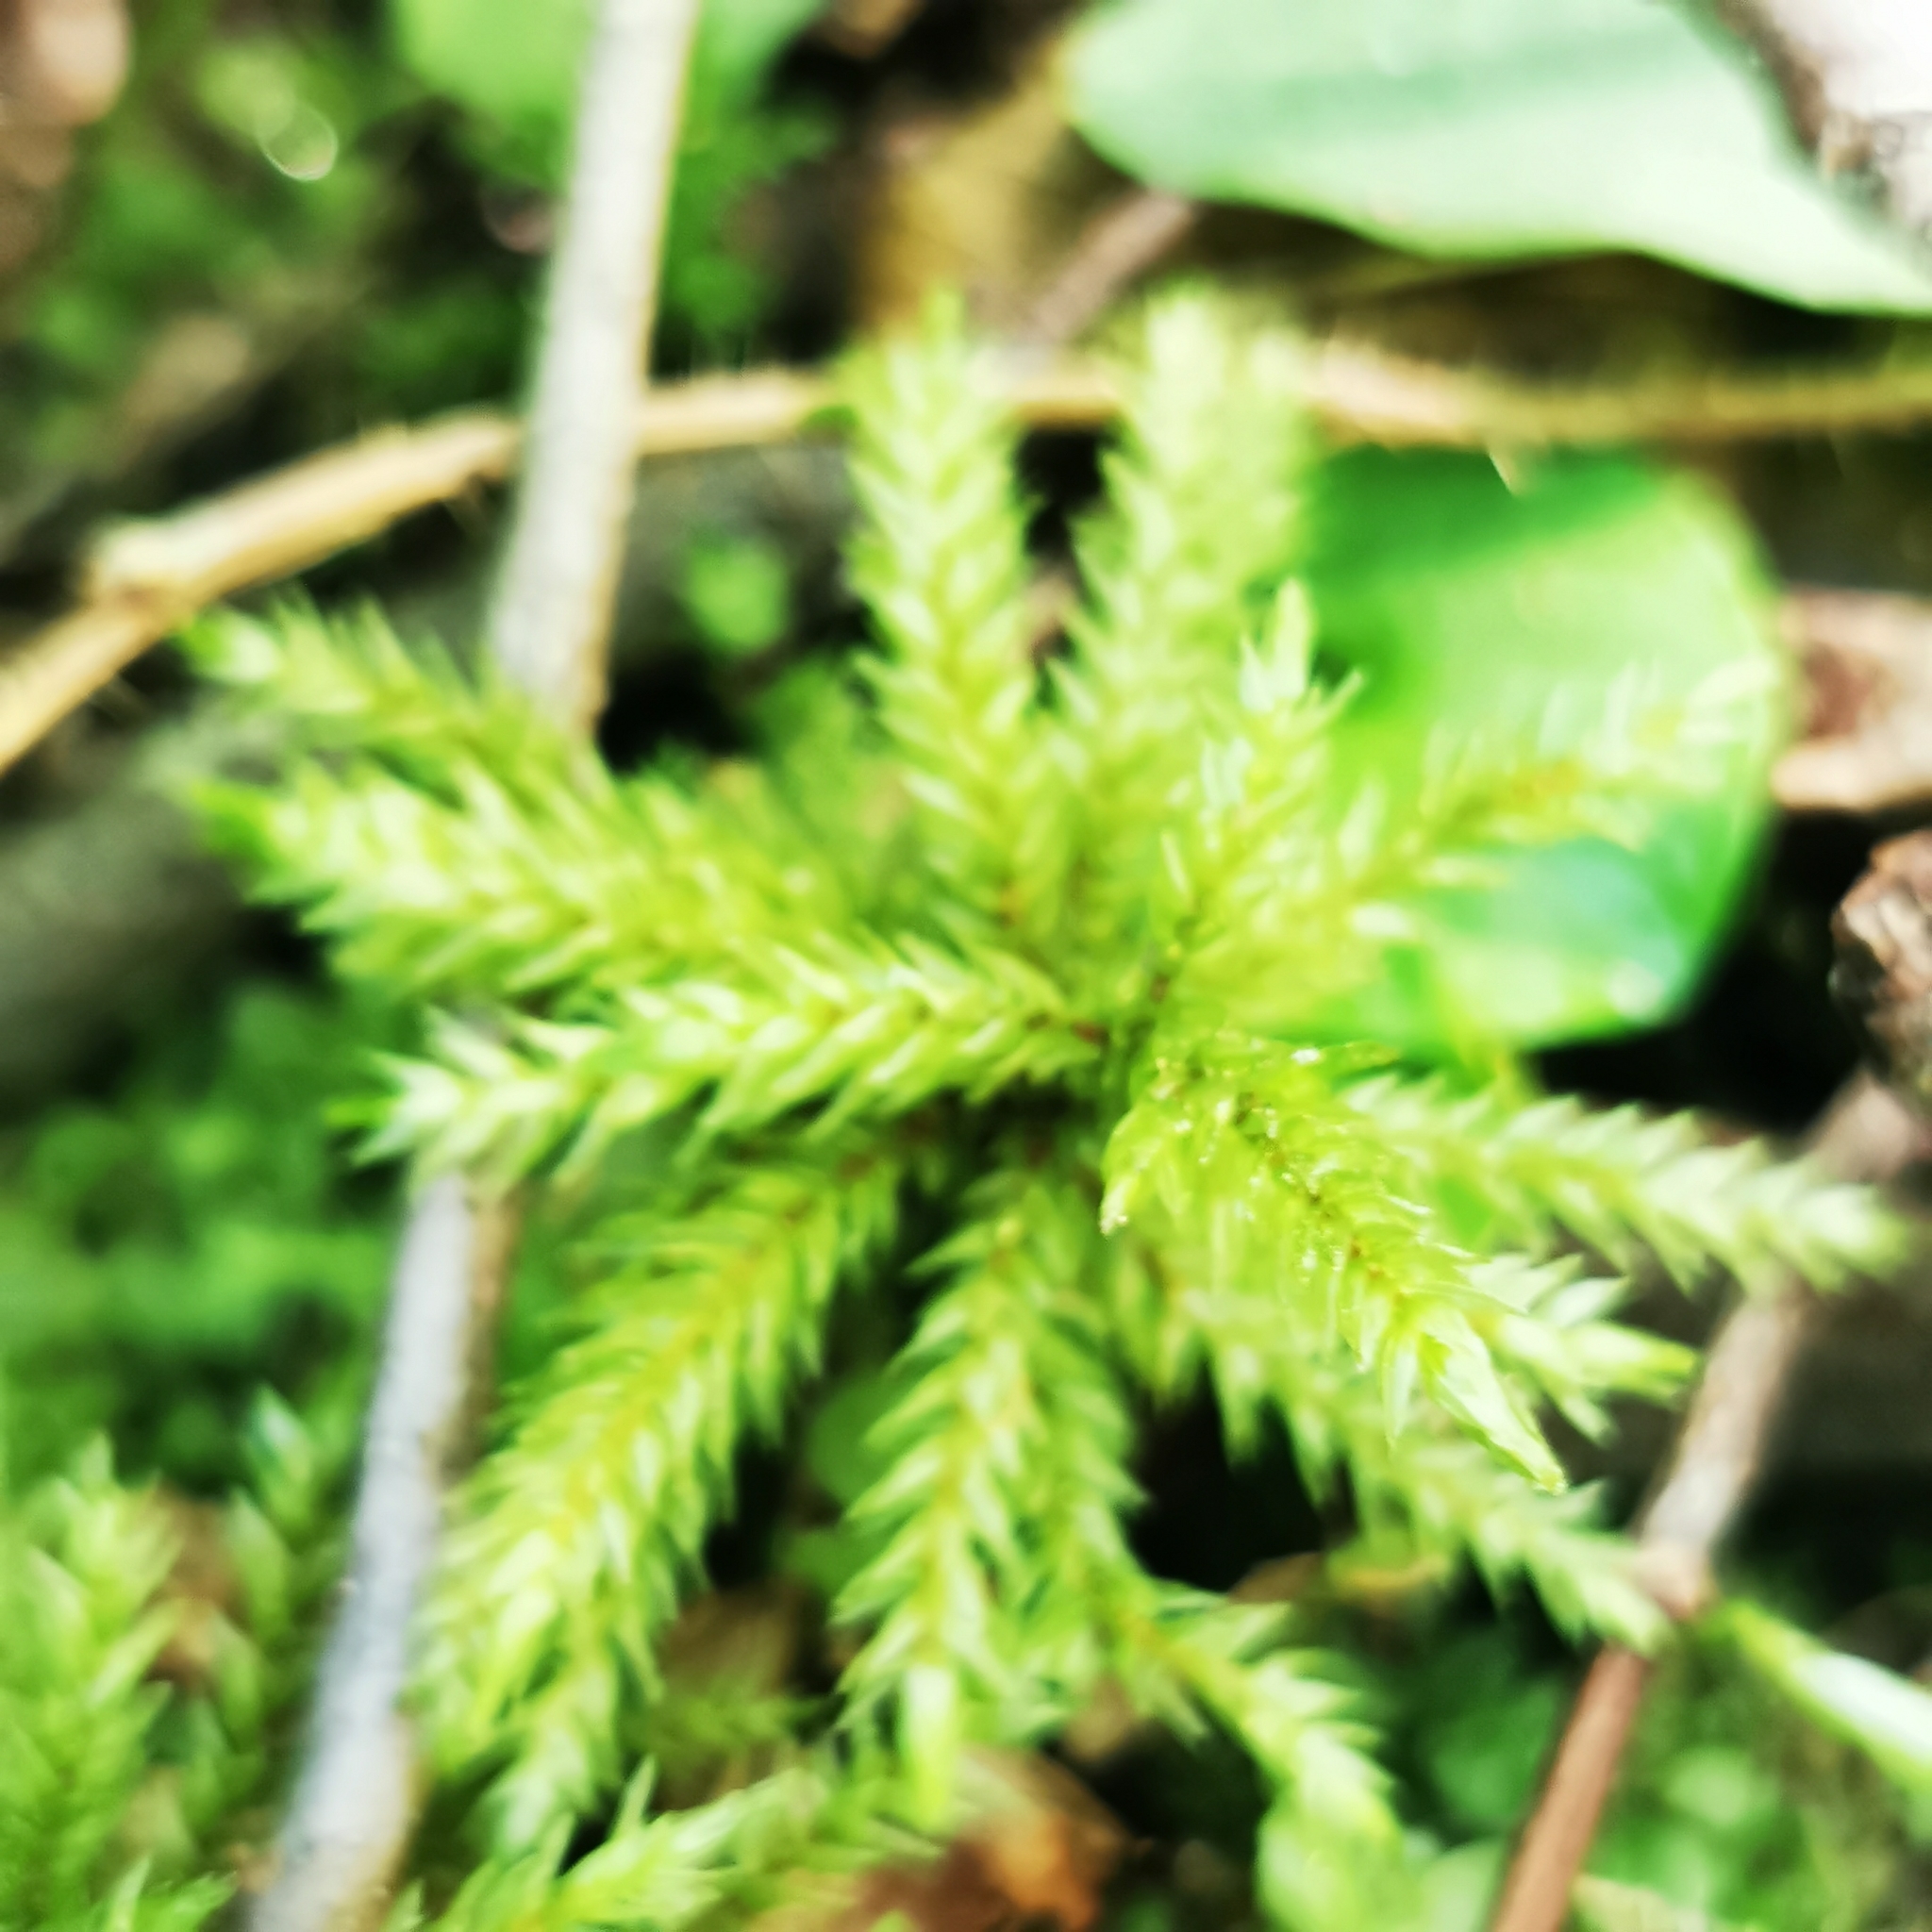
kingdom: Plantae
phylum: Bryophyta
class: Bryopsida
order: Hypnales
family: Climaciaceae
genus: Climacium
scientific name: Climacium dendroides
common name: Northern tree moss
